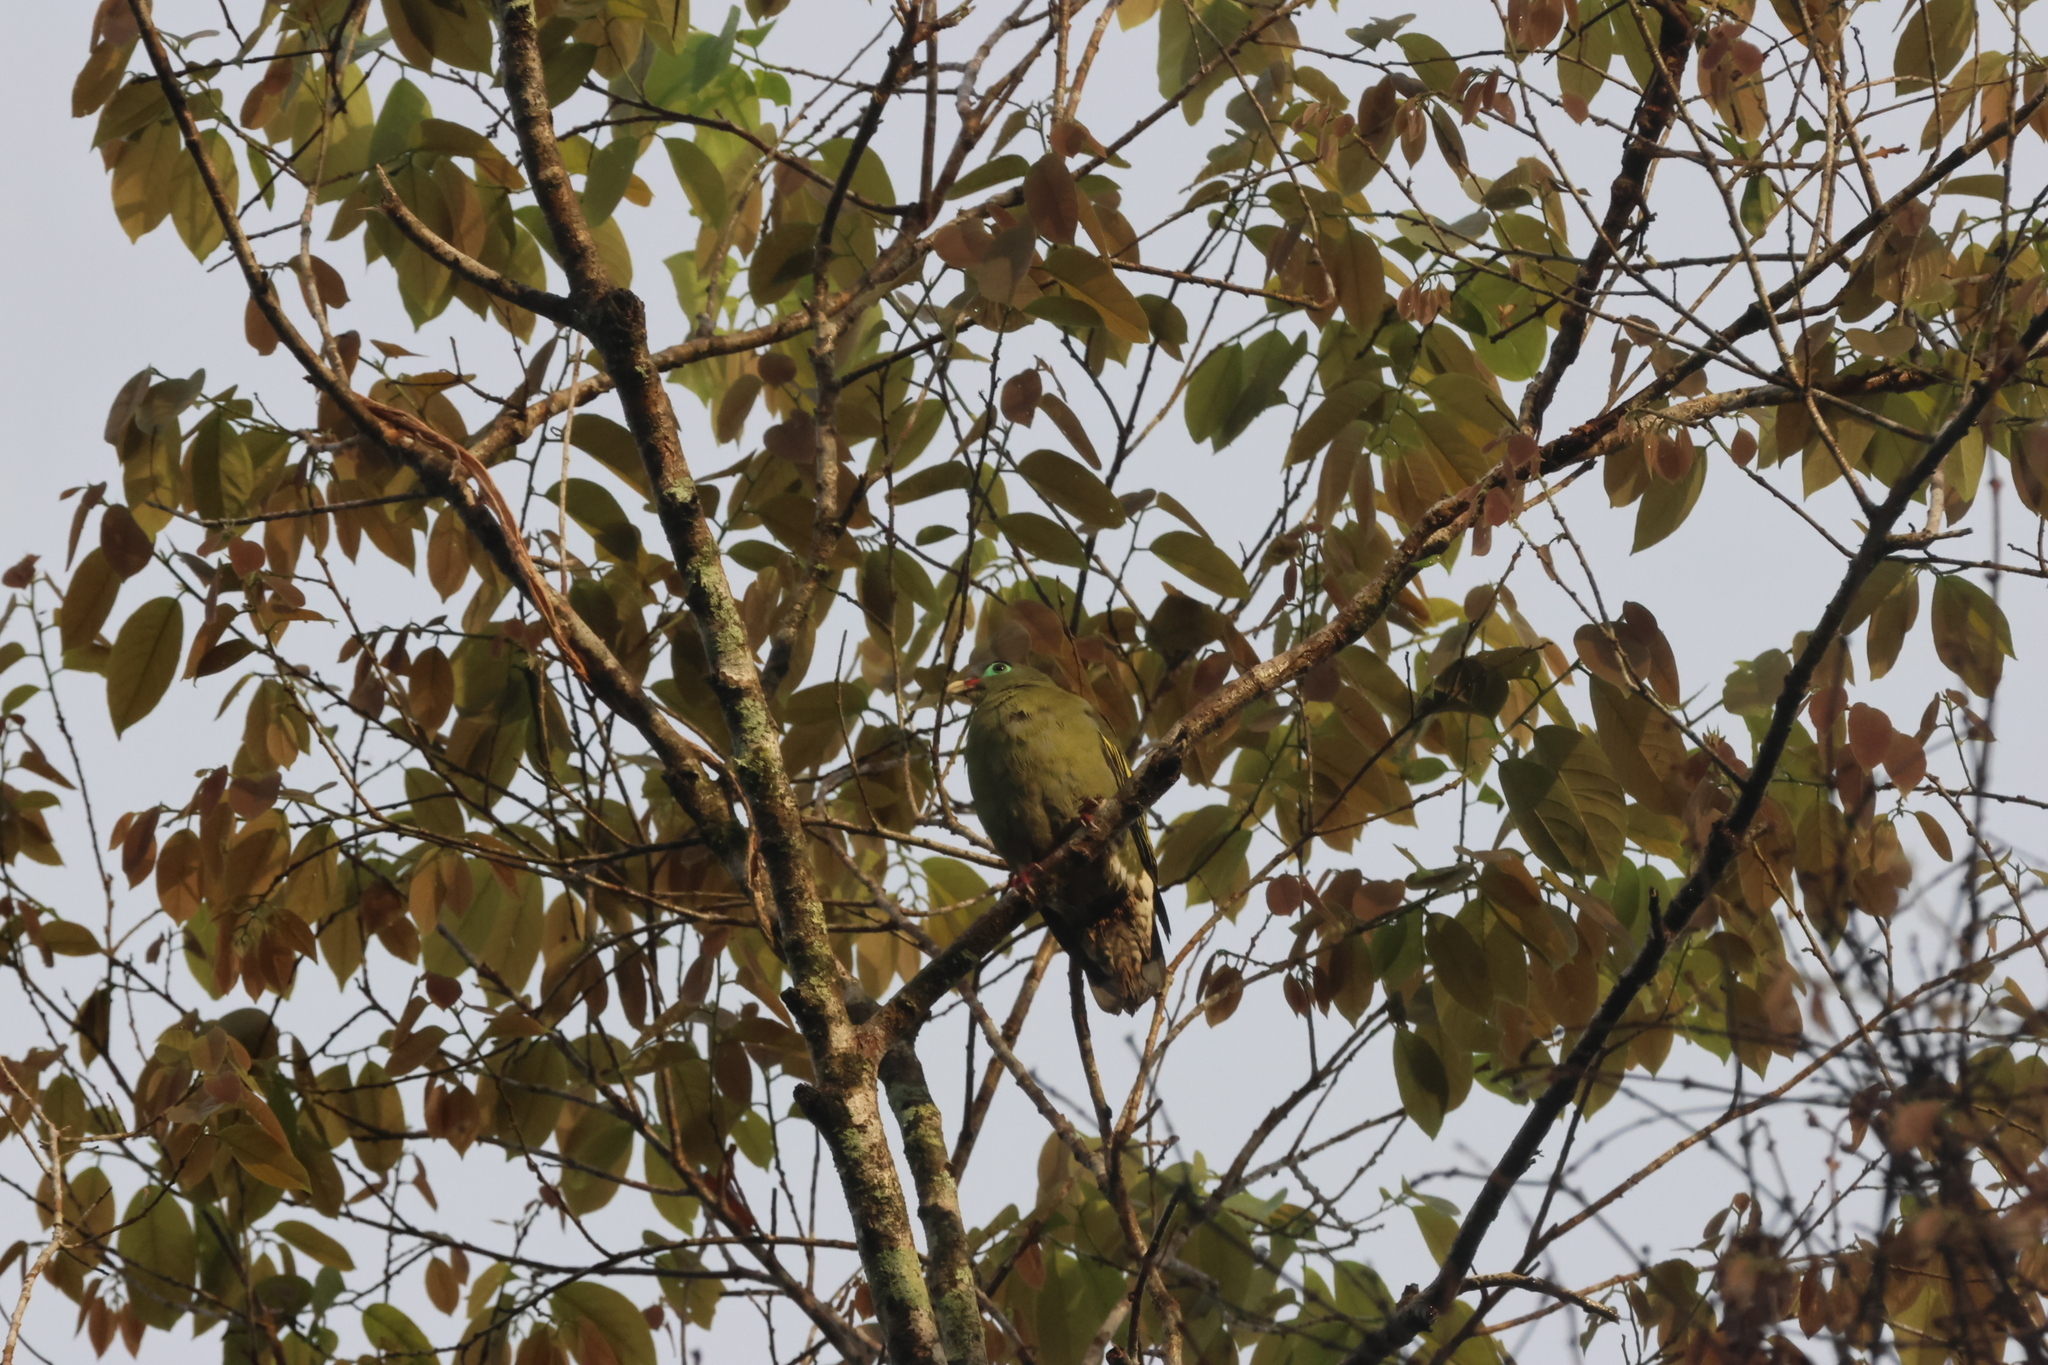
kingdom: Animalia
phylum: Chordata
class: Aves
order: Columbiformes
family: Columbidae
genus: Treron
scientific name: Treron curvirostra
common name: Thick-billed green pigeon
